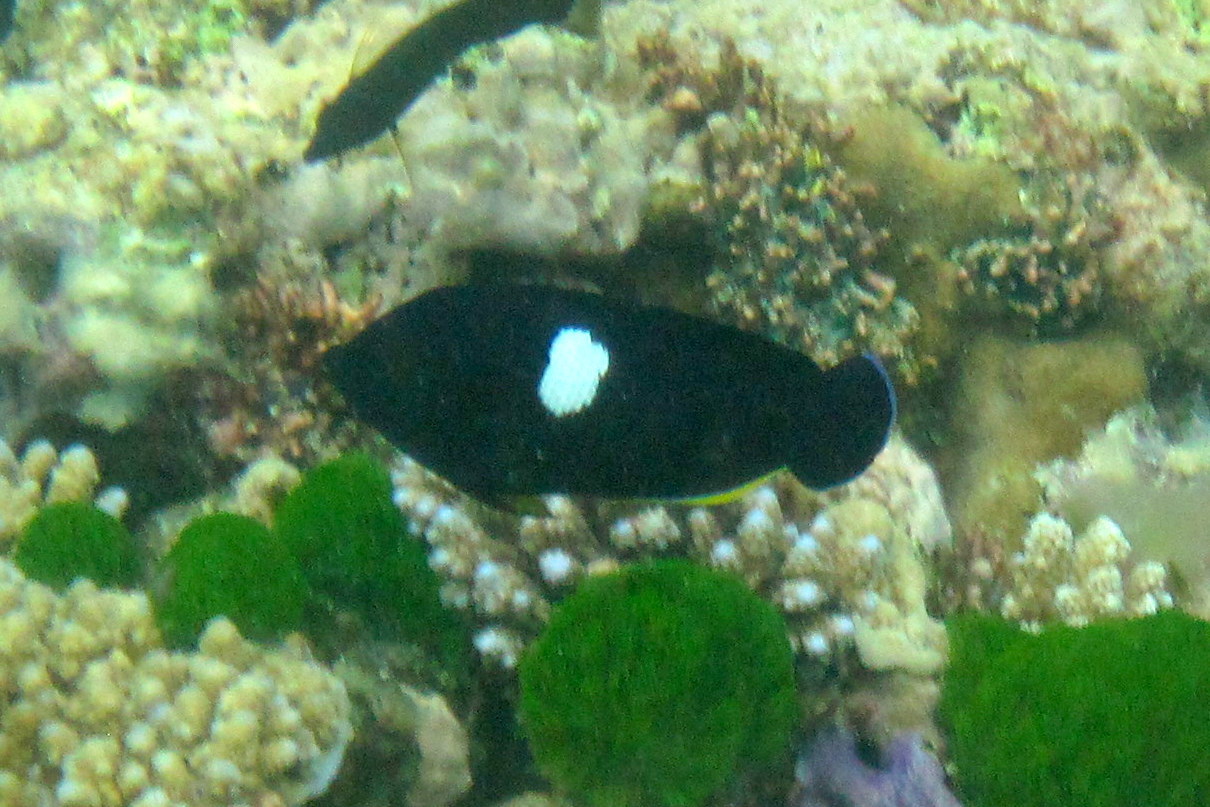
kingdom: Animalia
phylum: Chordata
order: Perciformes
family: Pomacanthidae
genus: Centropyge
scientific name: Centropyge tibicen
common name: Keyhole angelfish
